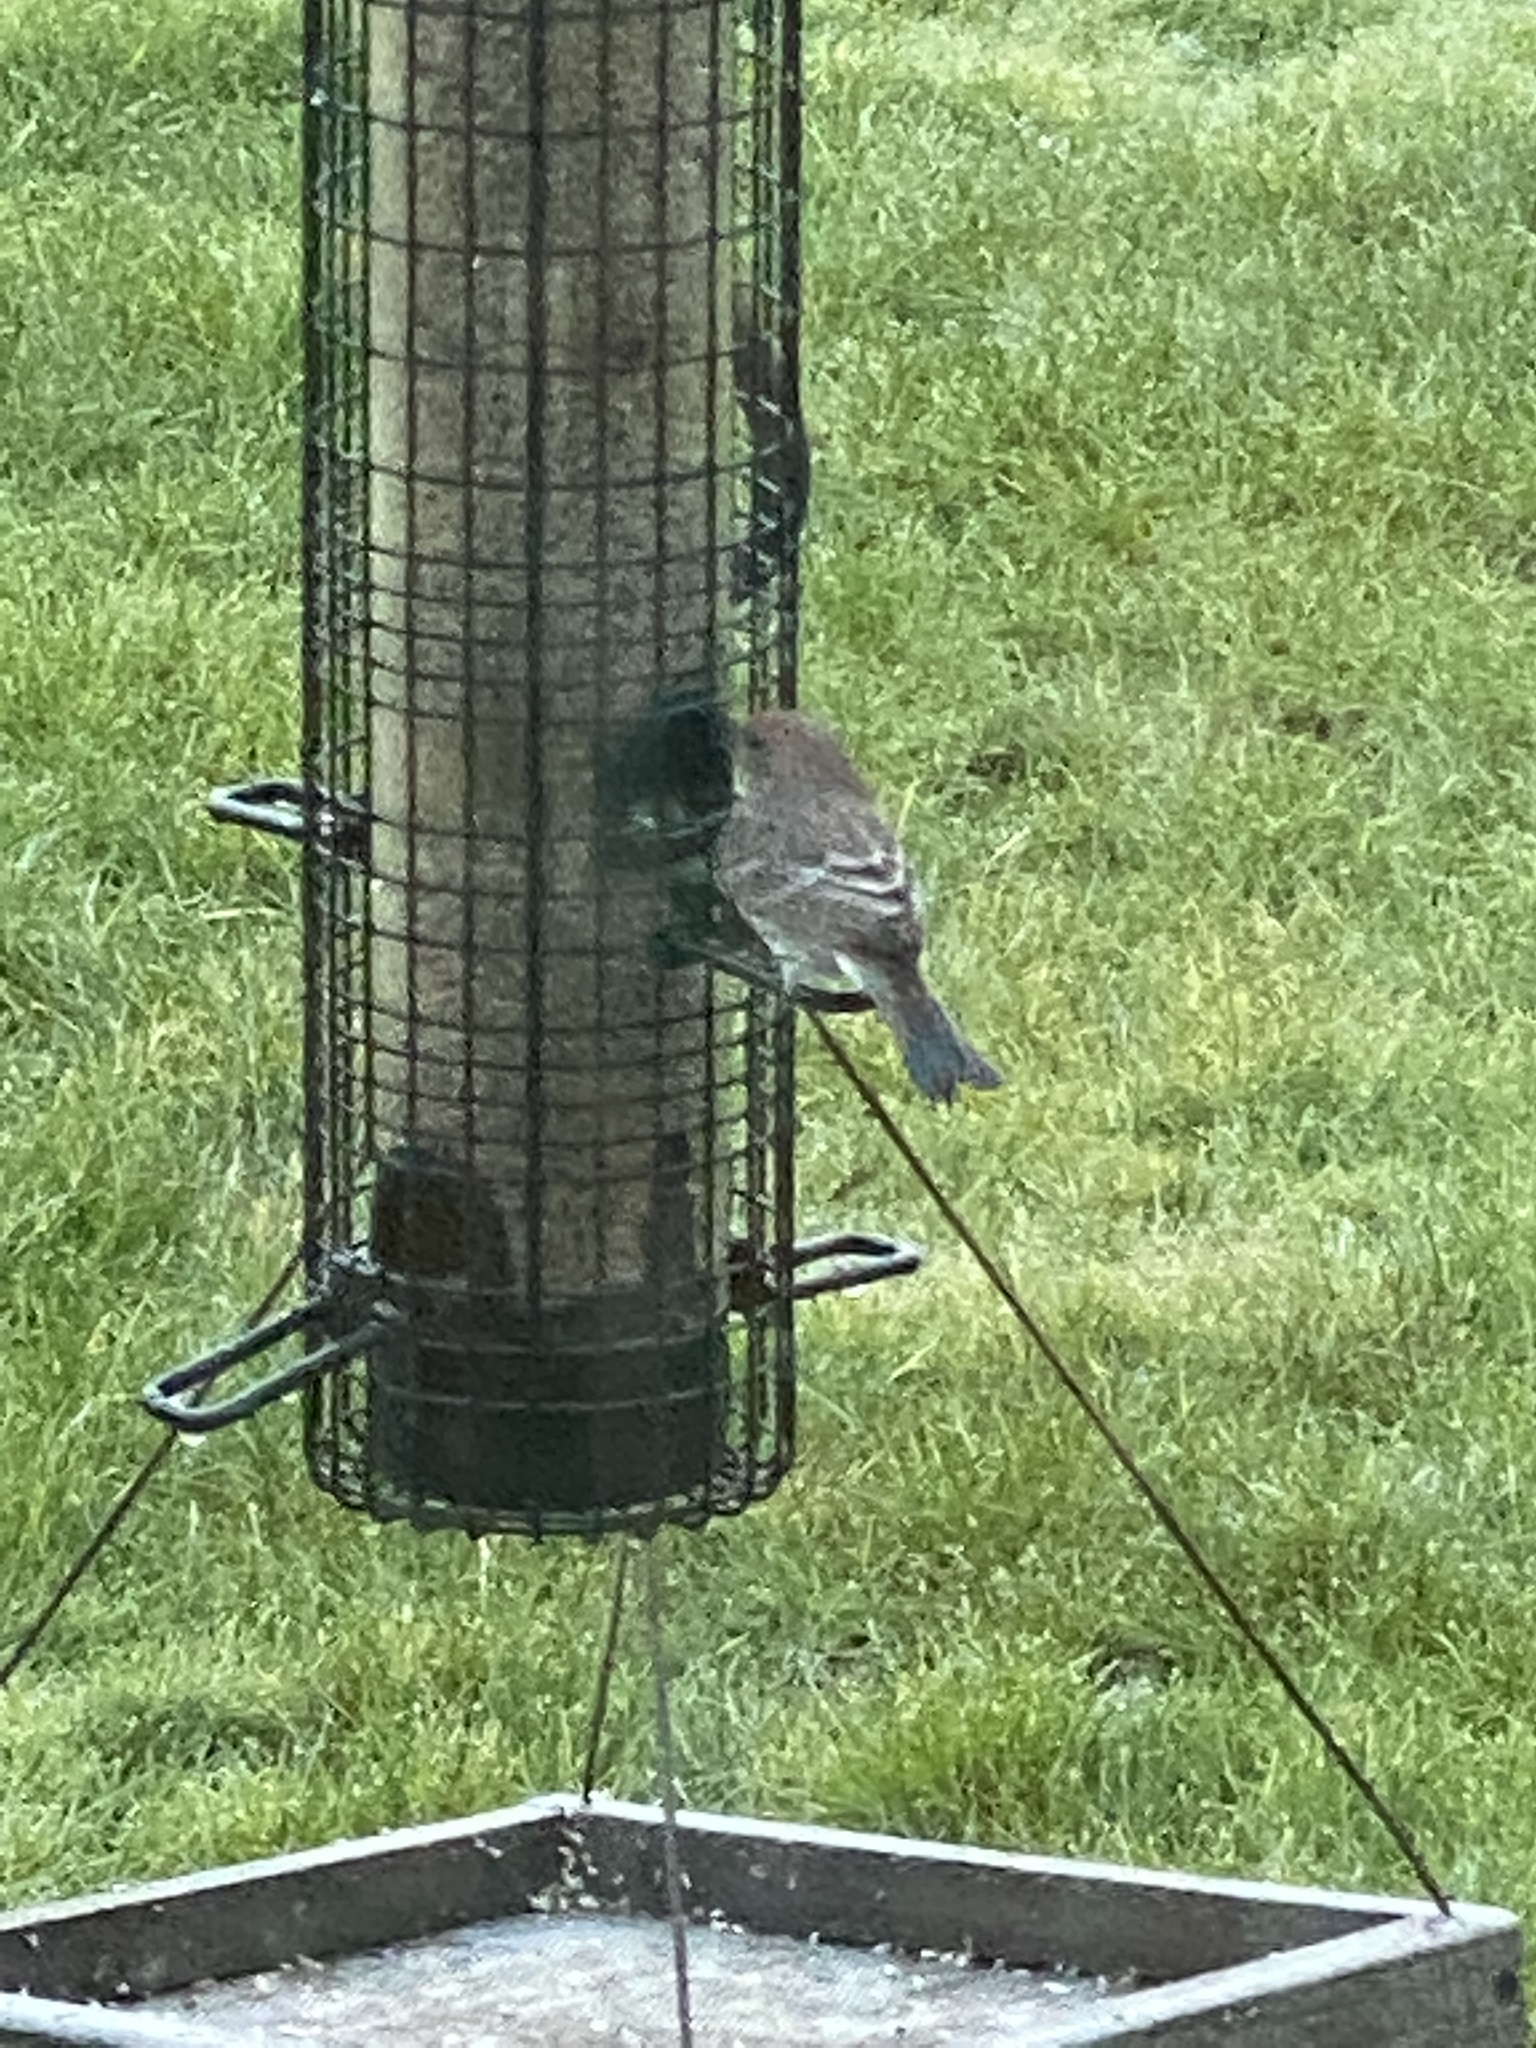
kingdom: Animalia
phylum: Chordata
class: Aves
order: Passeriformes
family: Fringillidae
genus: Haemorhous
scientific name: Haemorhous mexicanus
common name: House finch
